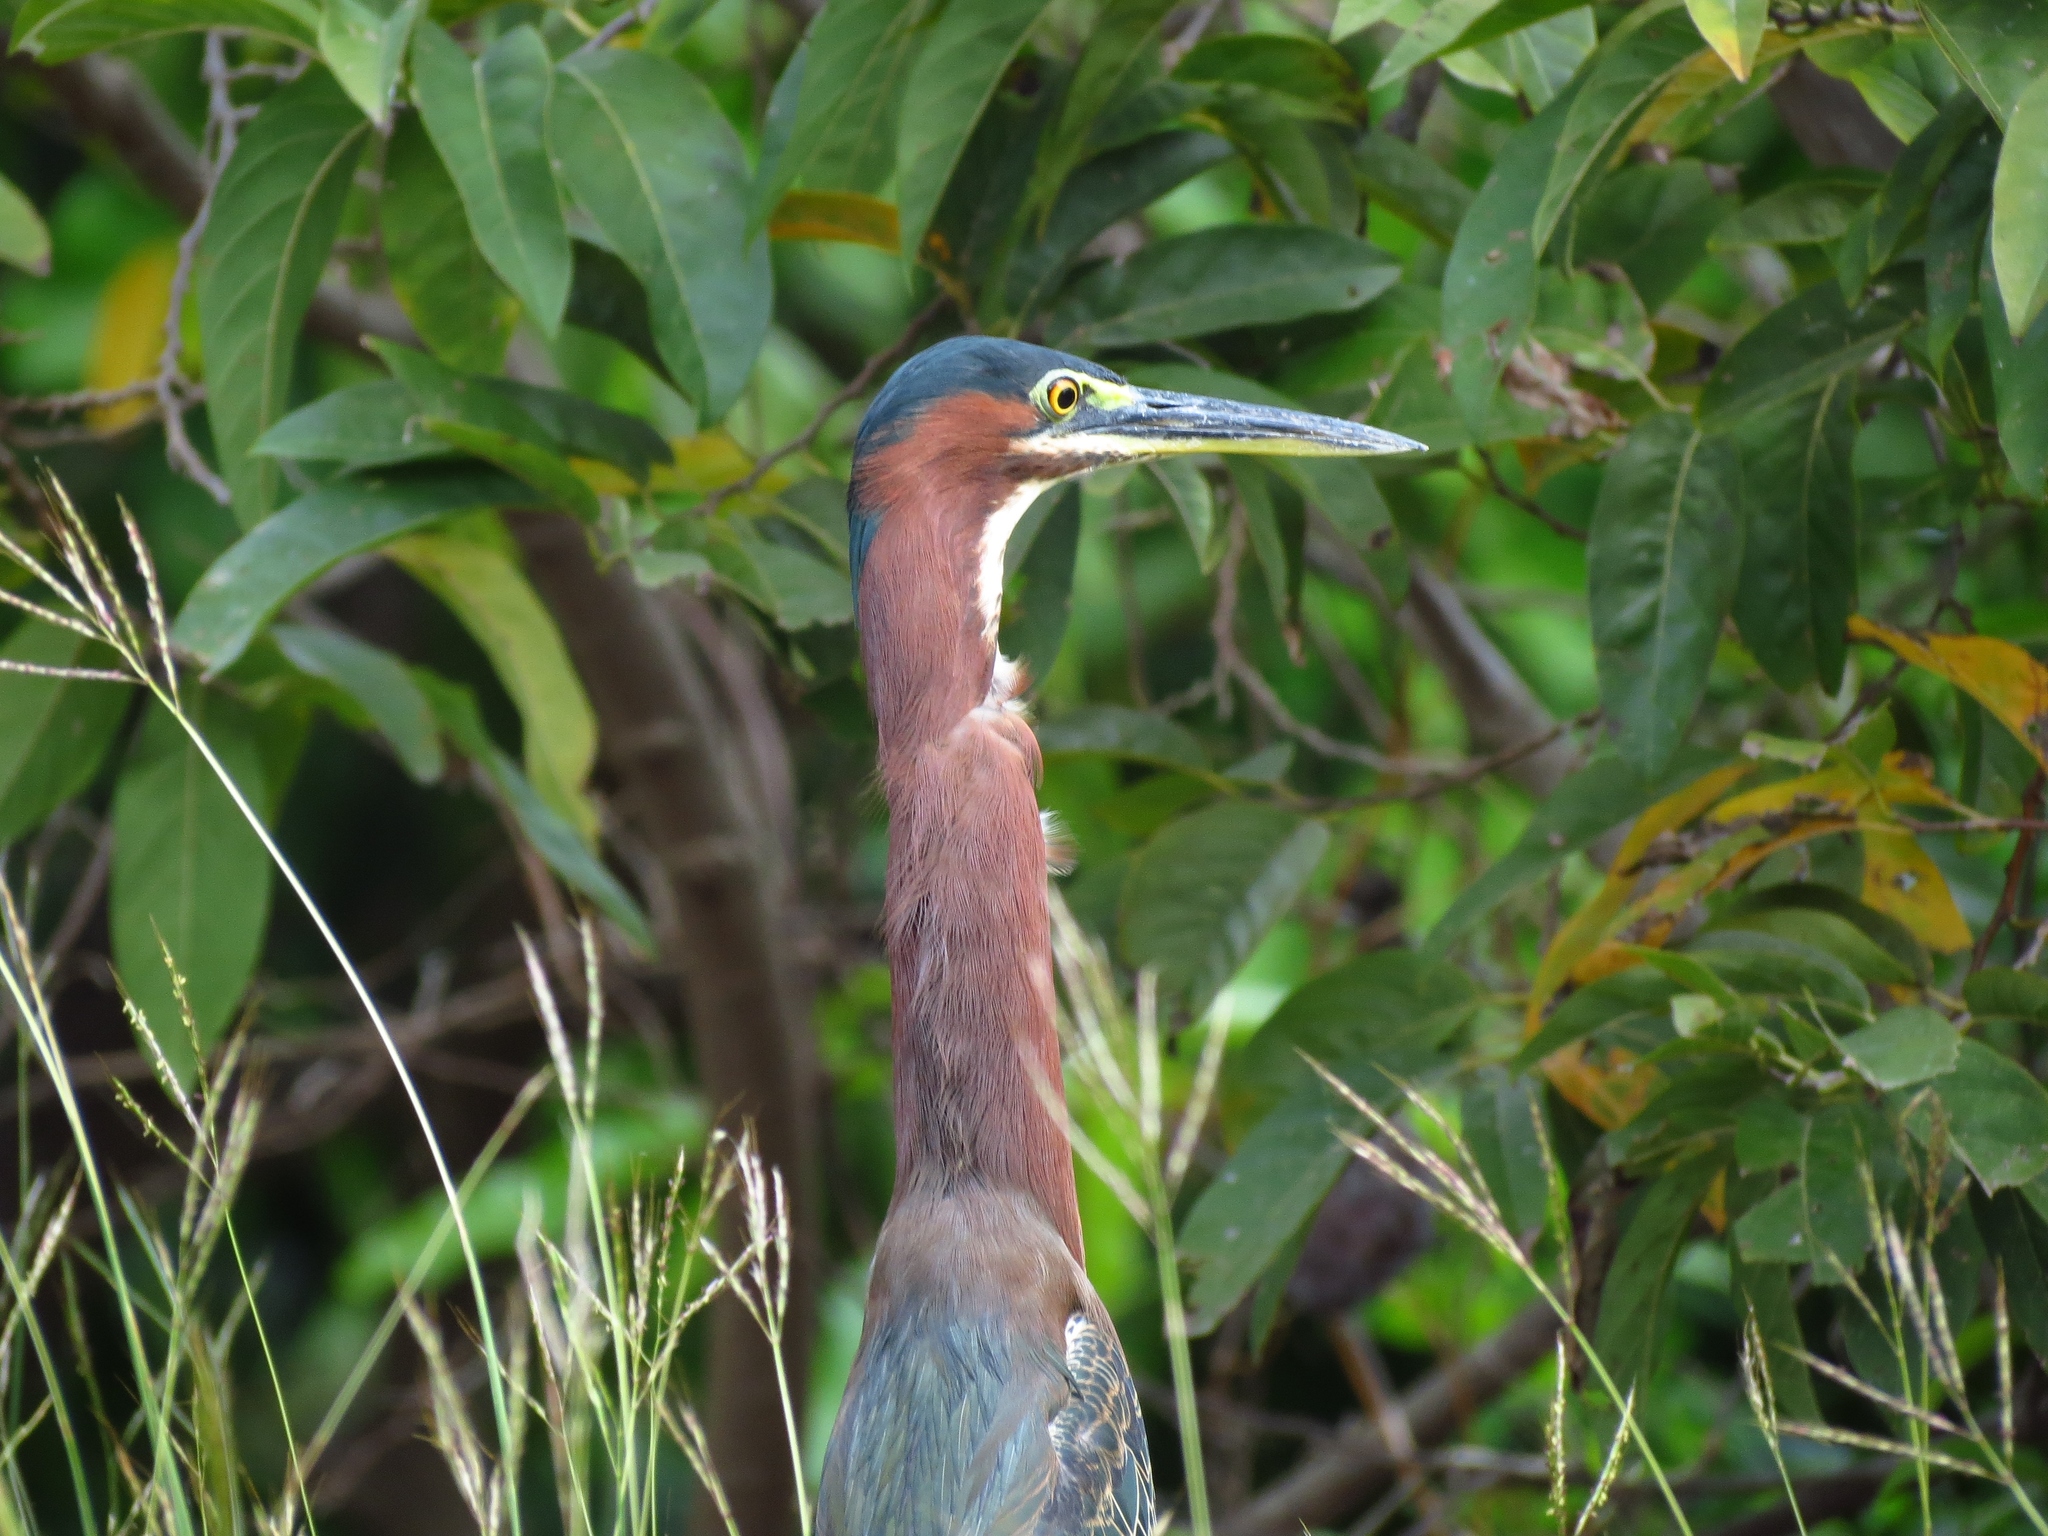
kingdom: Animalia
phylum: Chordata
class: Aves
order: Pelecaniformes
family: Ardeidae
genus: Butorides
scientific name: Butorides virescens
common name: Green heron
